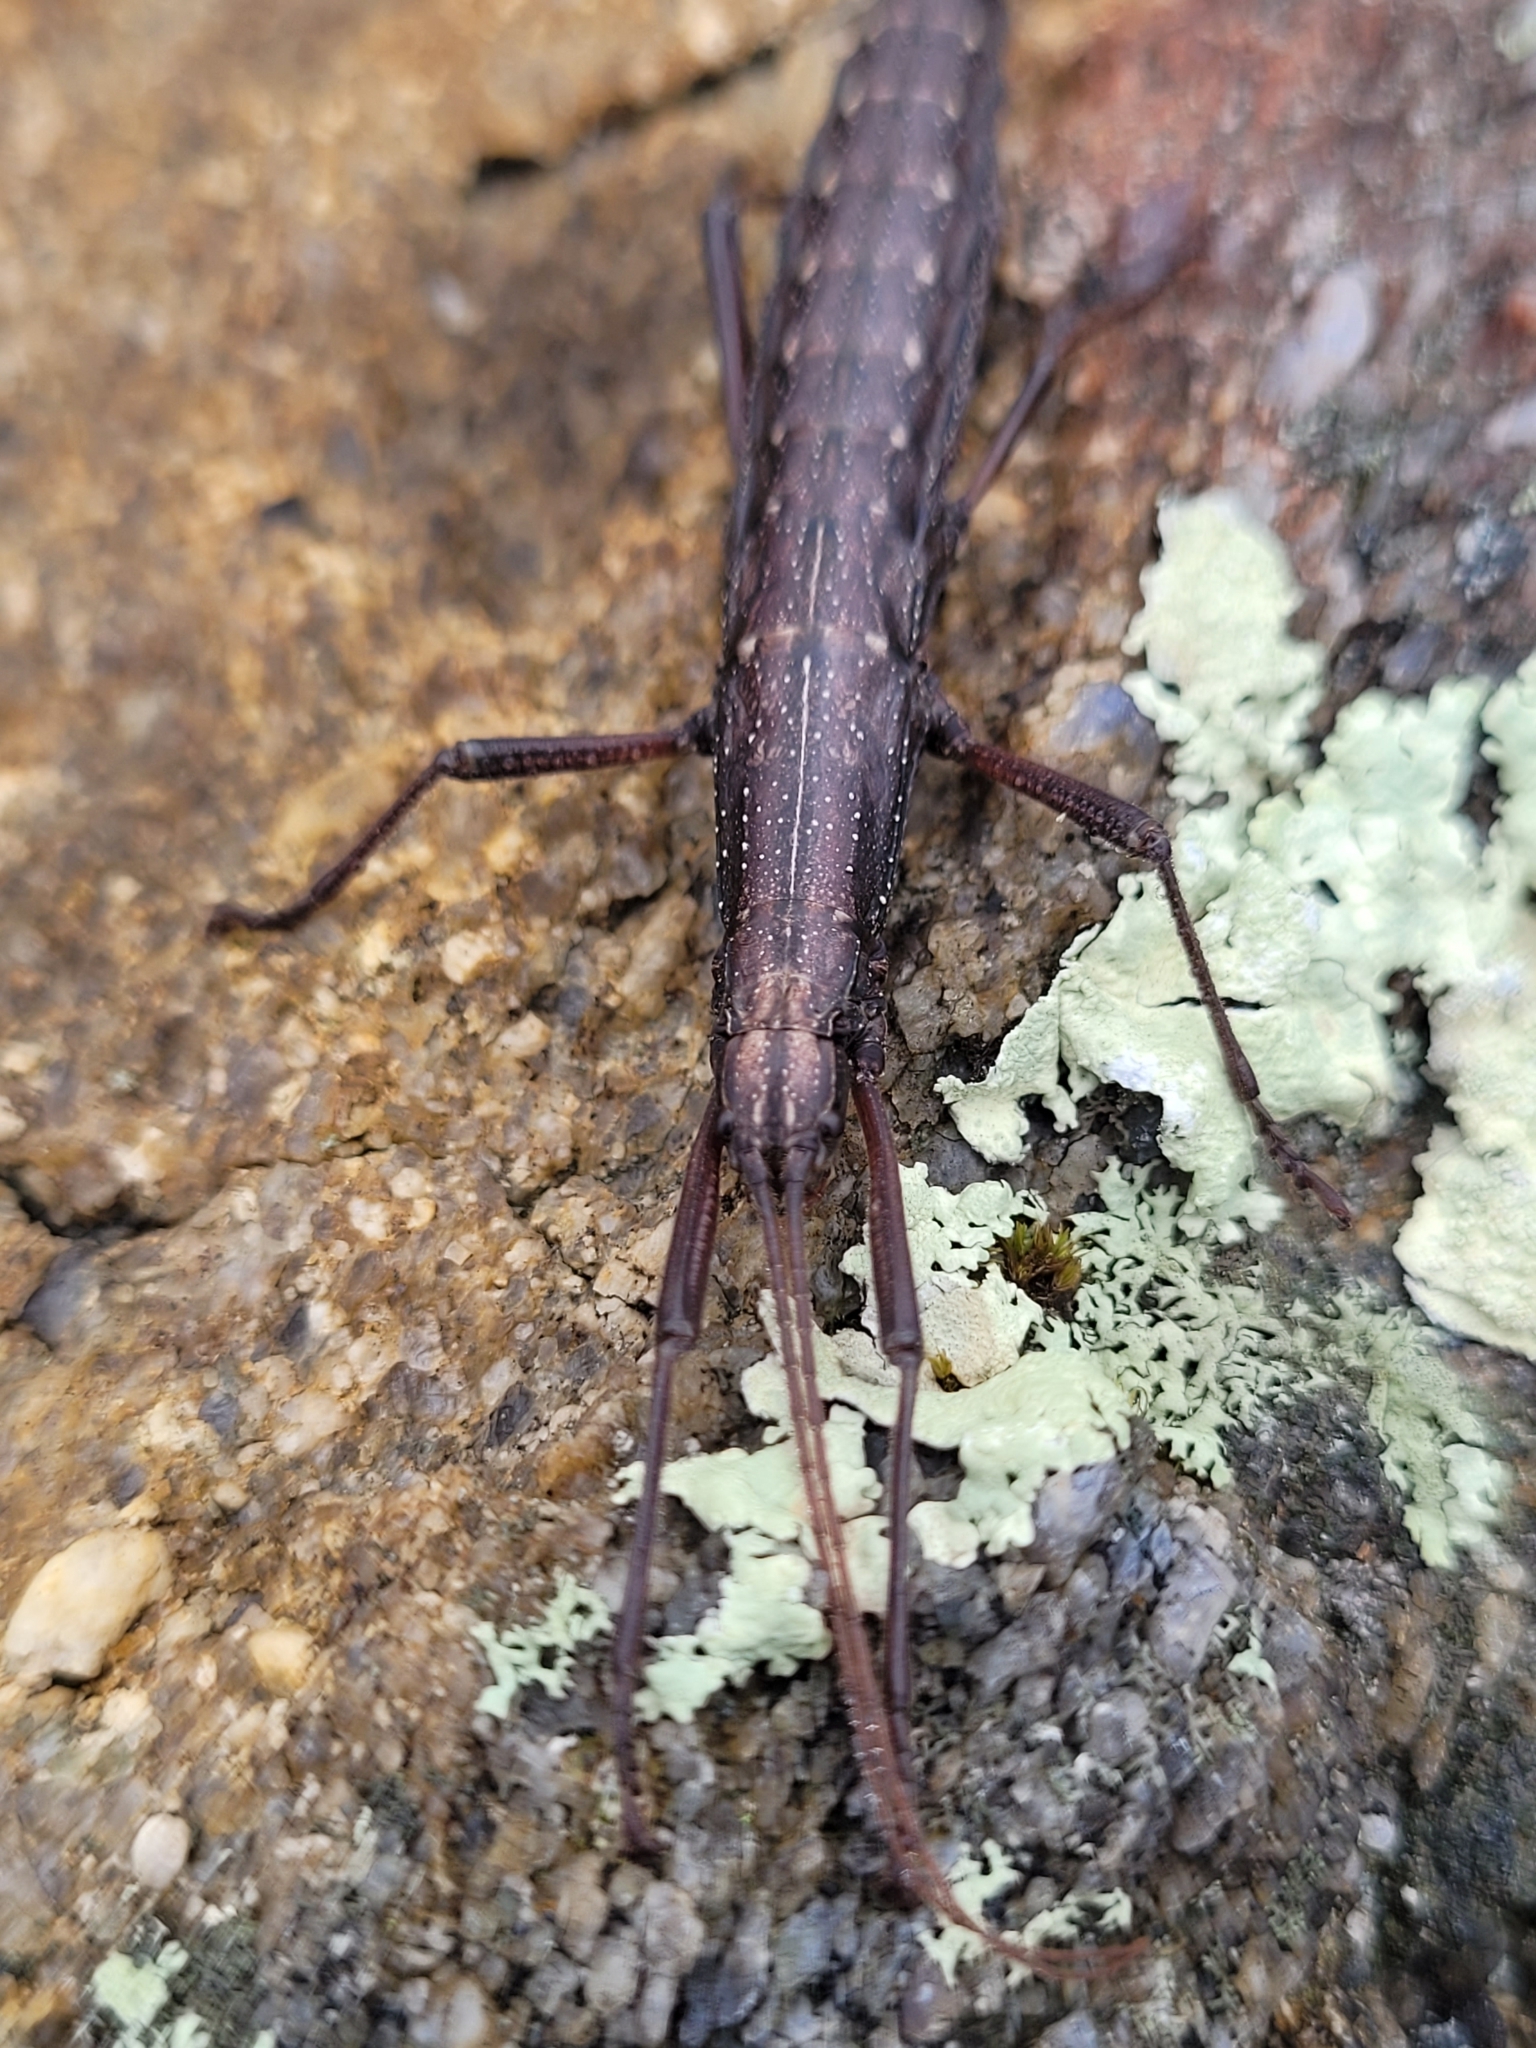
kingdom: Animalia
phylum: Arthropoda
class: Insecta
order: Phasmida
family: Pseudophasmatidae
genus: Anisomorpha
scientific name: Anisomorpha ferruginea
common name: Dark walkingstick
